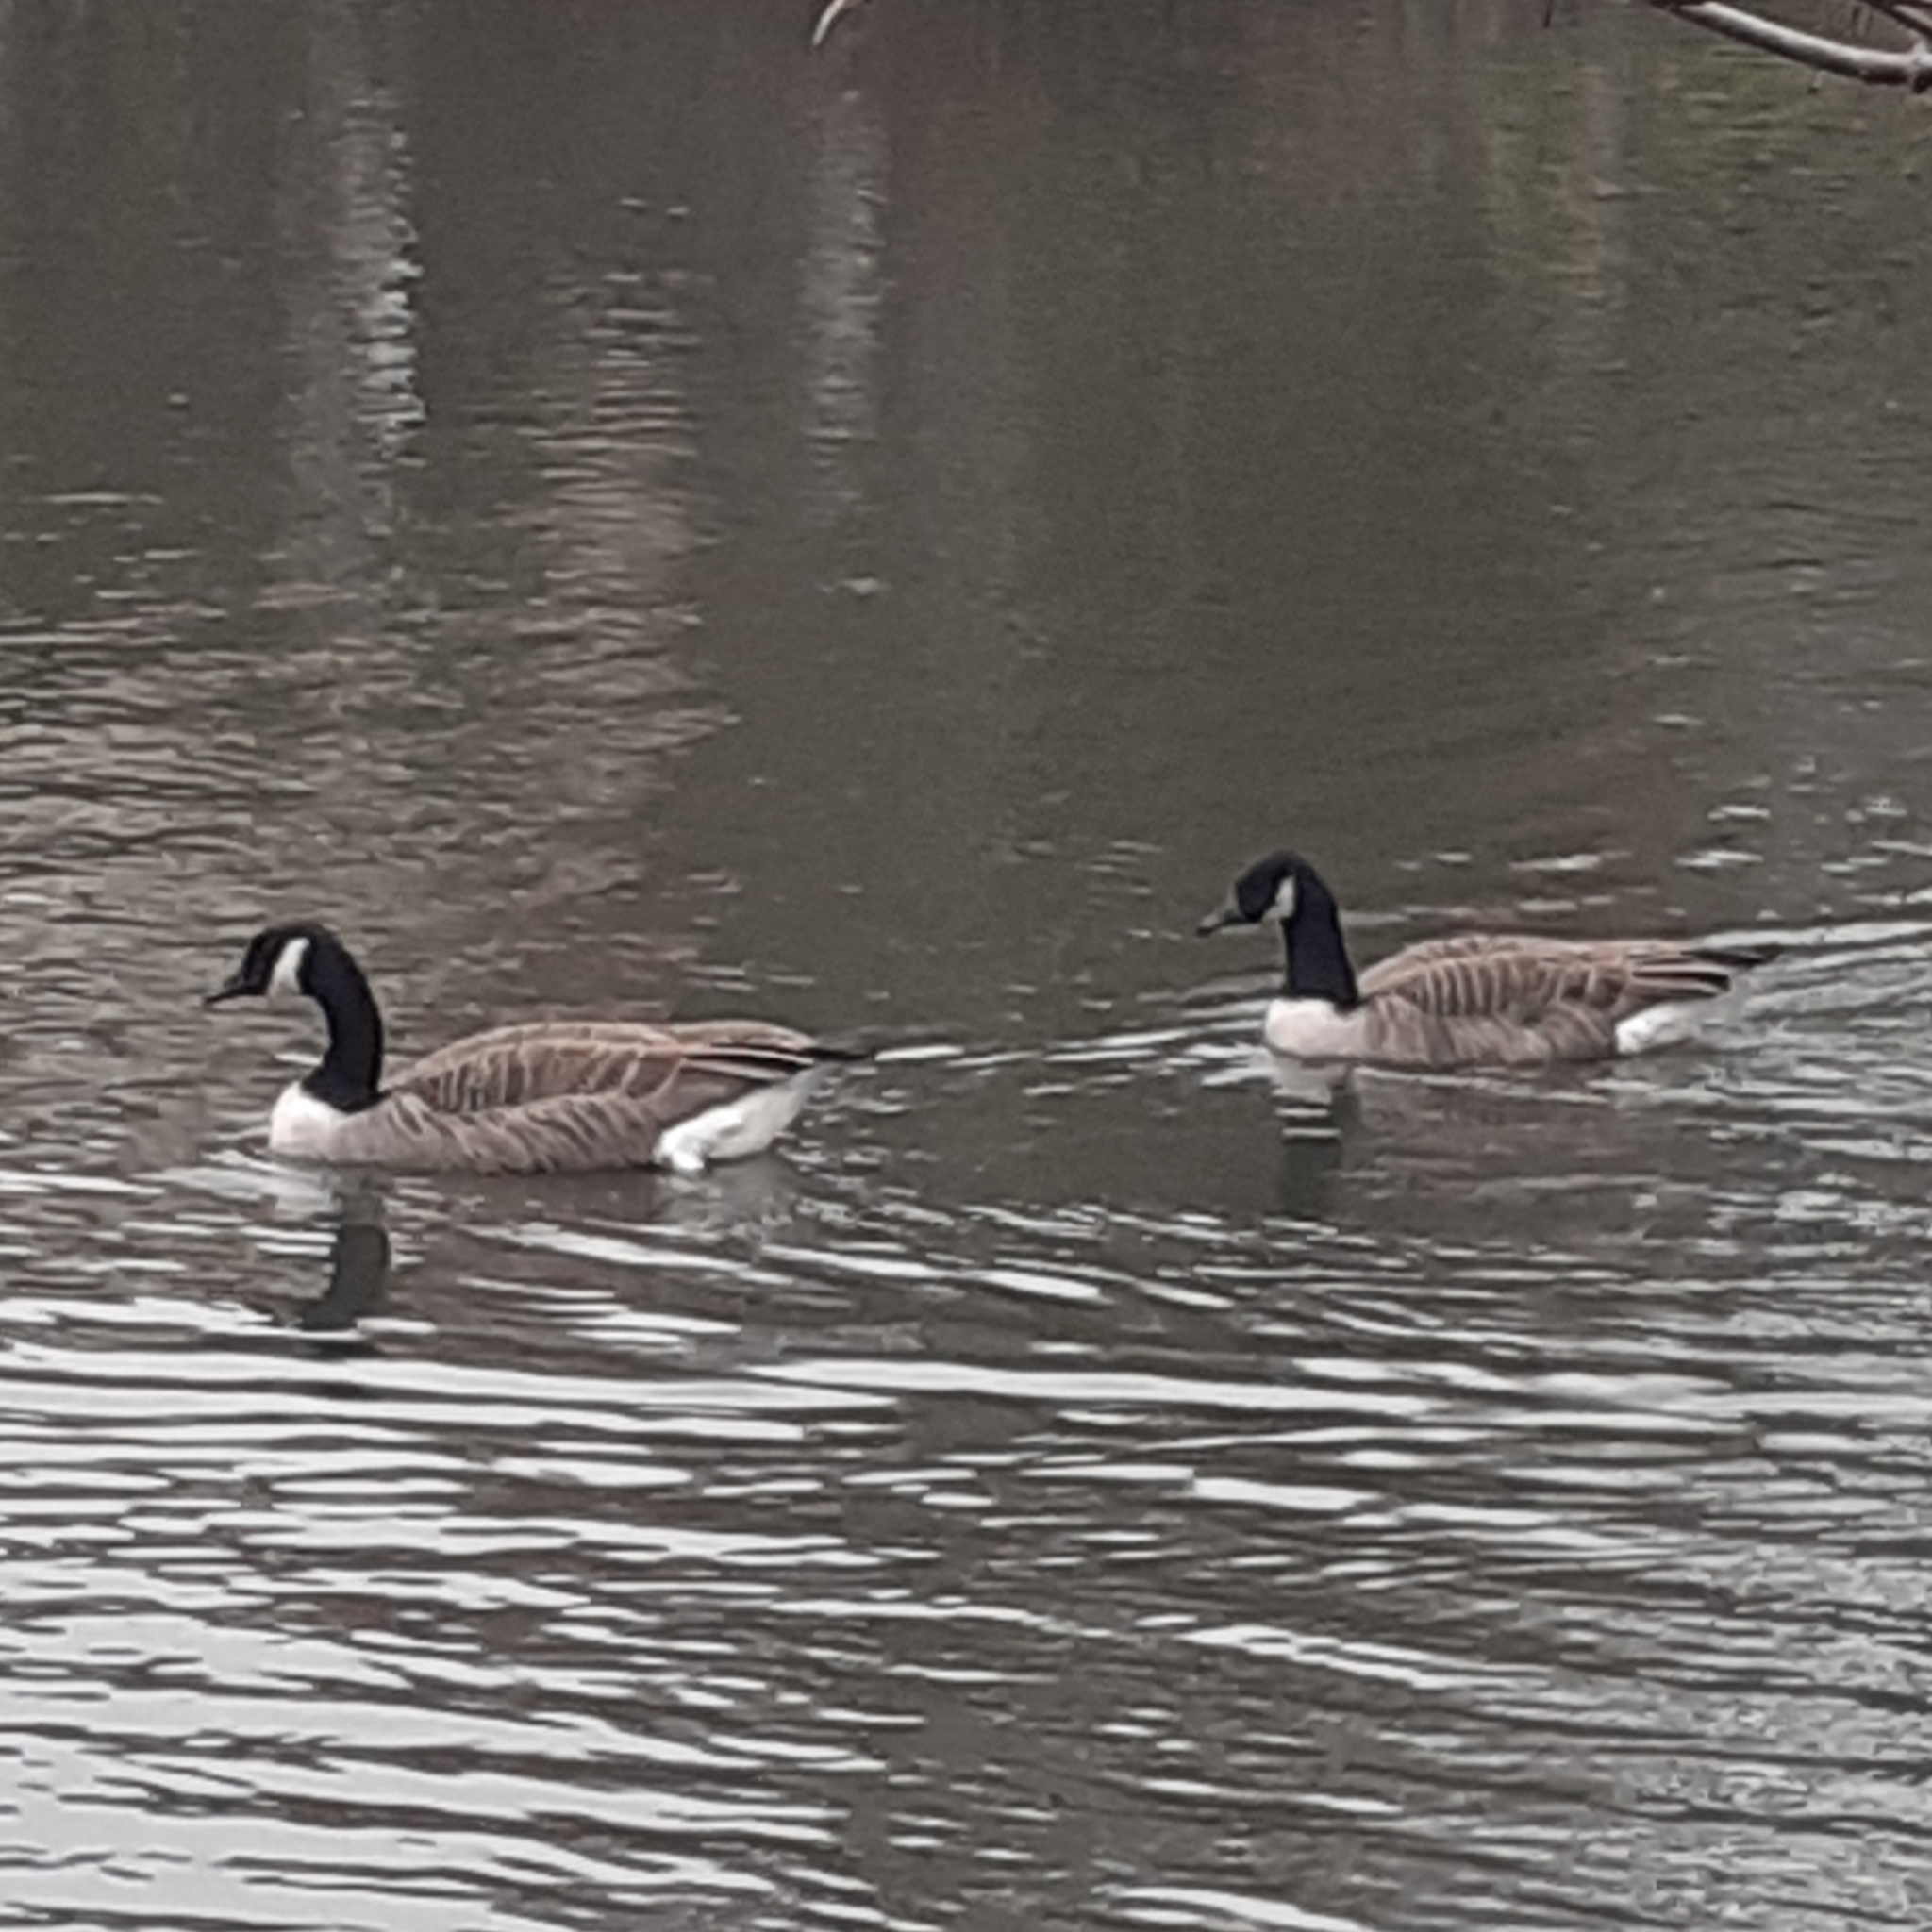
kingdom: Animalia
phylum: Chordata
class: Aves
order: Anseriformes
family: Anatidae
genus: Branta
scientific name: Branta canadensis
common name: Canada goose
